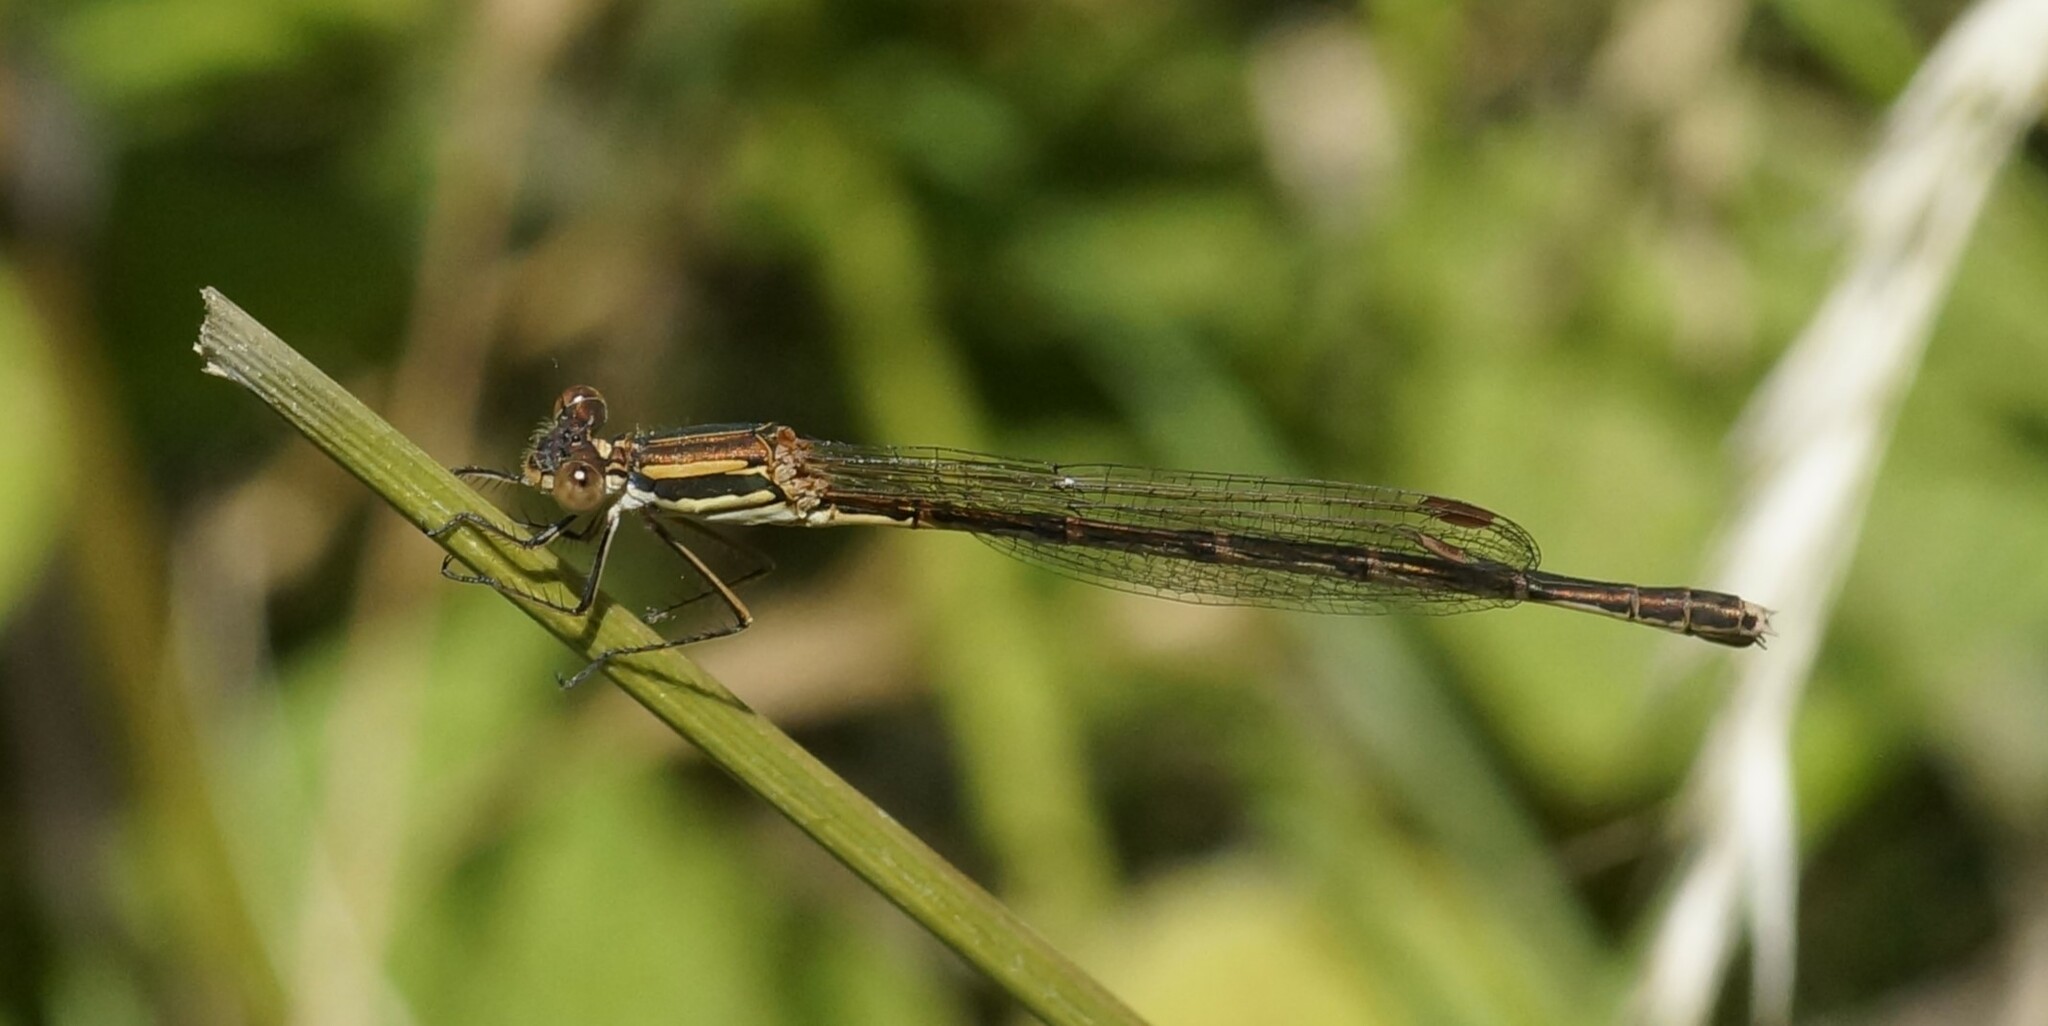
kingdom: Animalia
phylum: Arthropoda
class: Insecta
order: Odonata
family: Lestidae
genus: Austrolestes
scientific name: Austrolestes analis
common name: Slender ringtail
